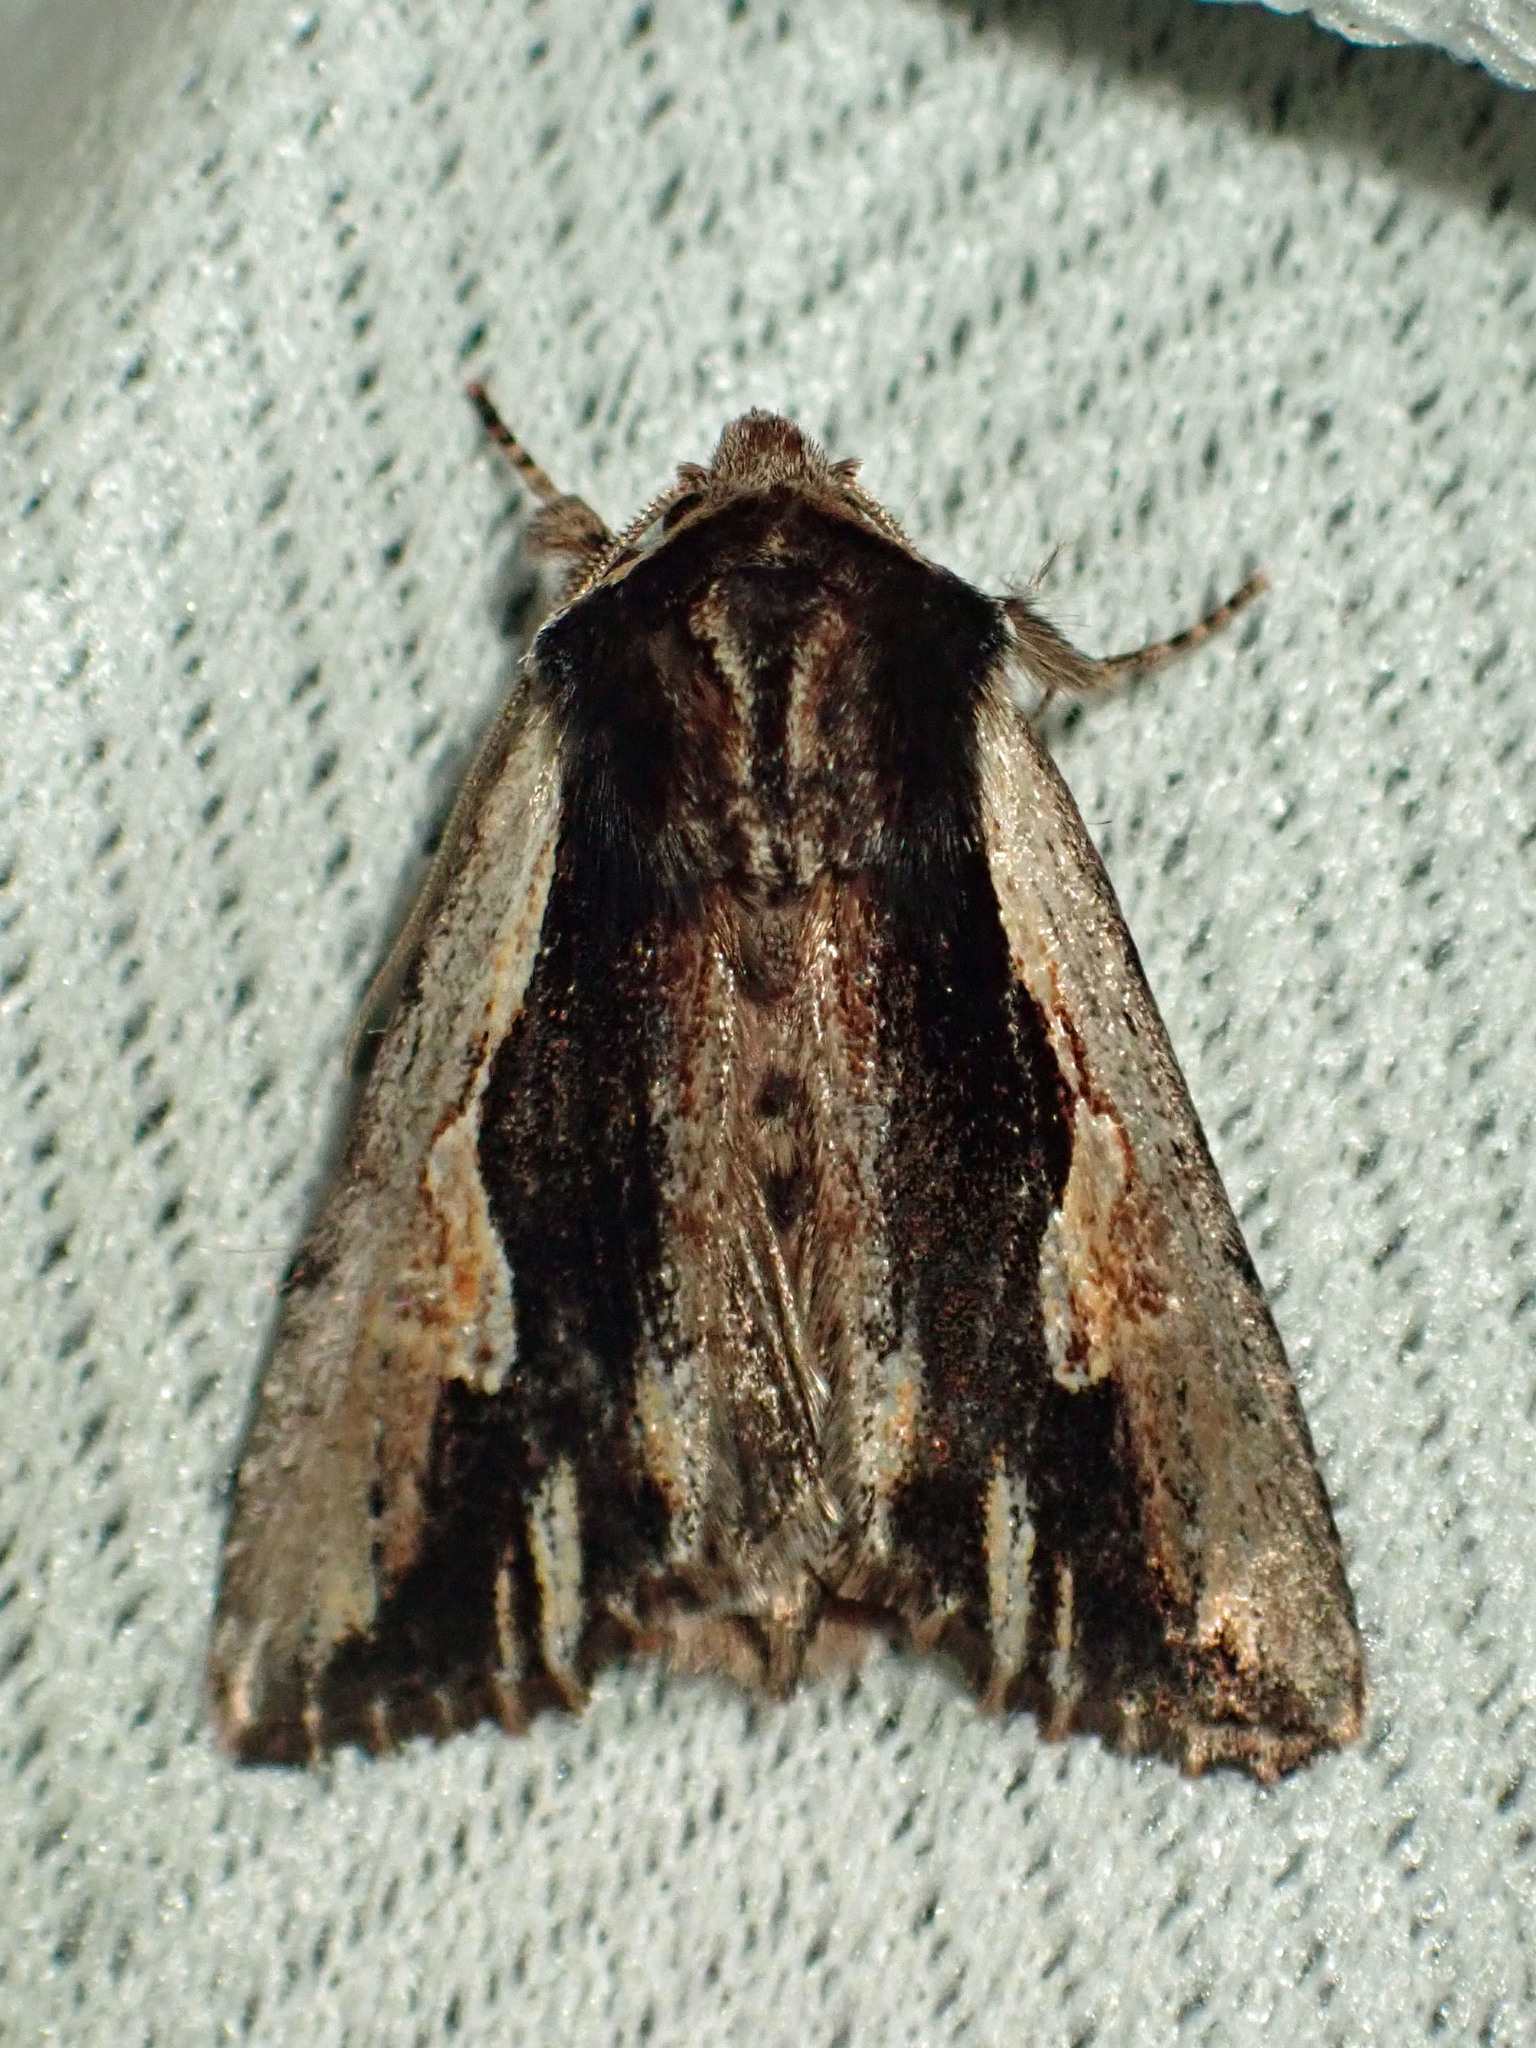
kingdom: Animalia
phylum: Arthropoda
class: Insecta
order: Lepidoptera
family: Noctuidae
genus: Achatia
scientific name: Achatia evicta
